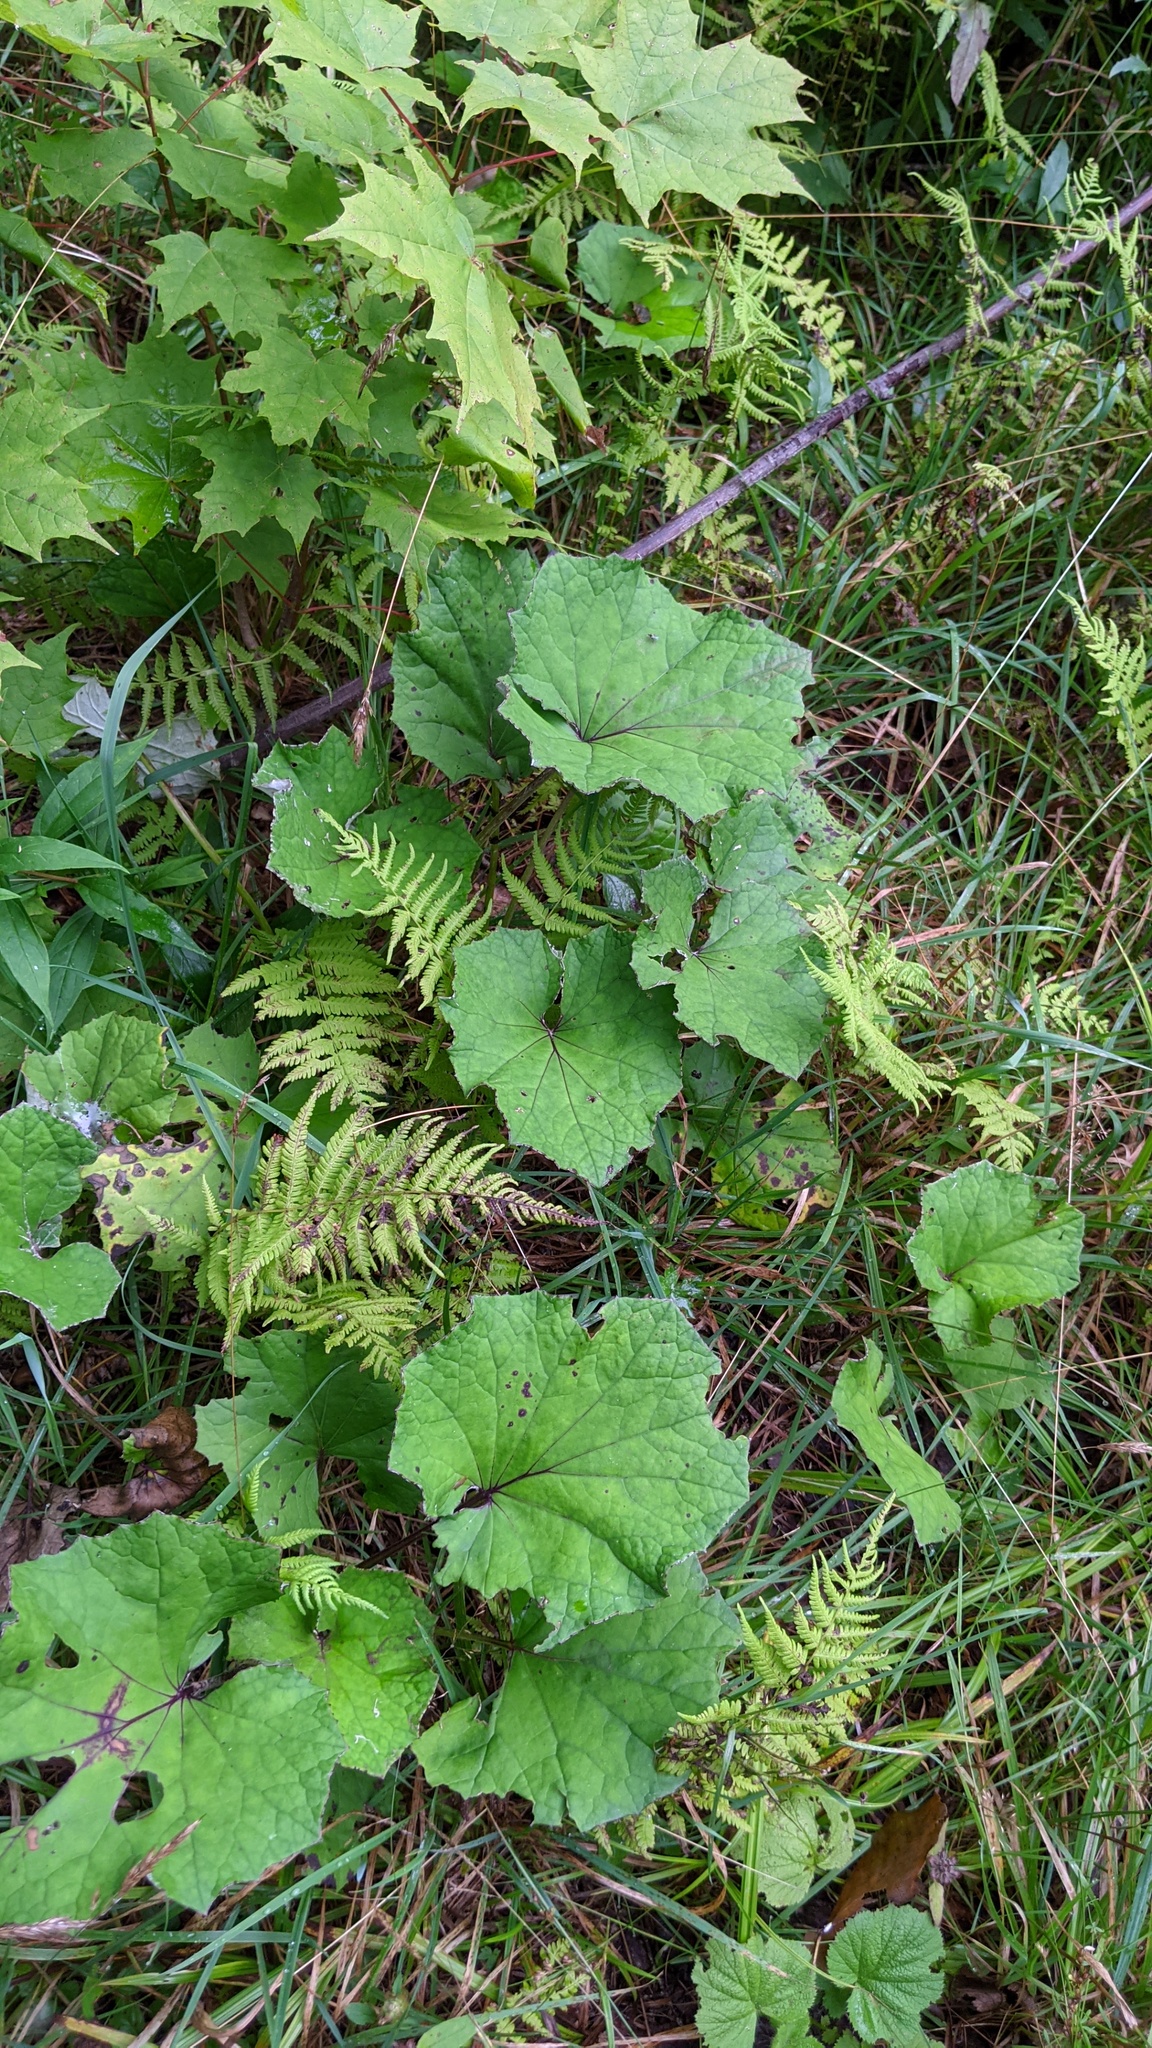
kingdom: Plantae
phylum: Tracheophyta
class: Magnoliopsida
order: Asterales
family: Asteraceae
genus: Tussilago
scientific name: Tussilago farfara
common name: Coltsfoot
